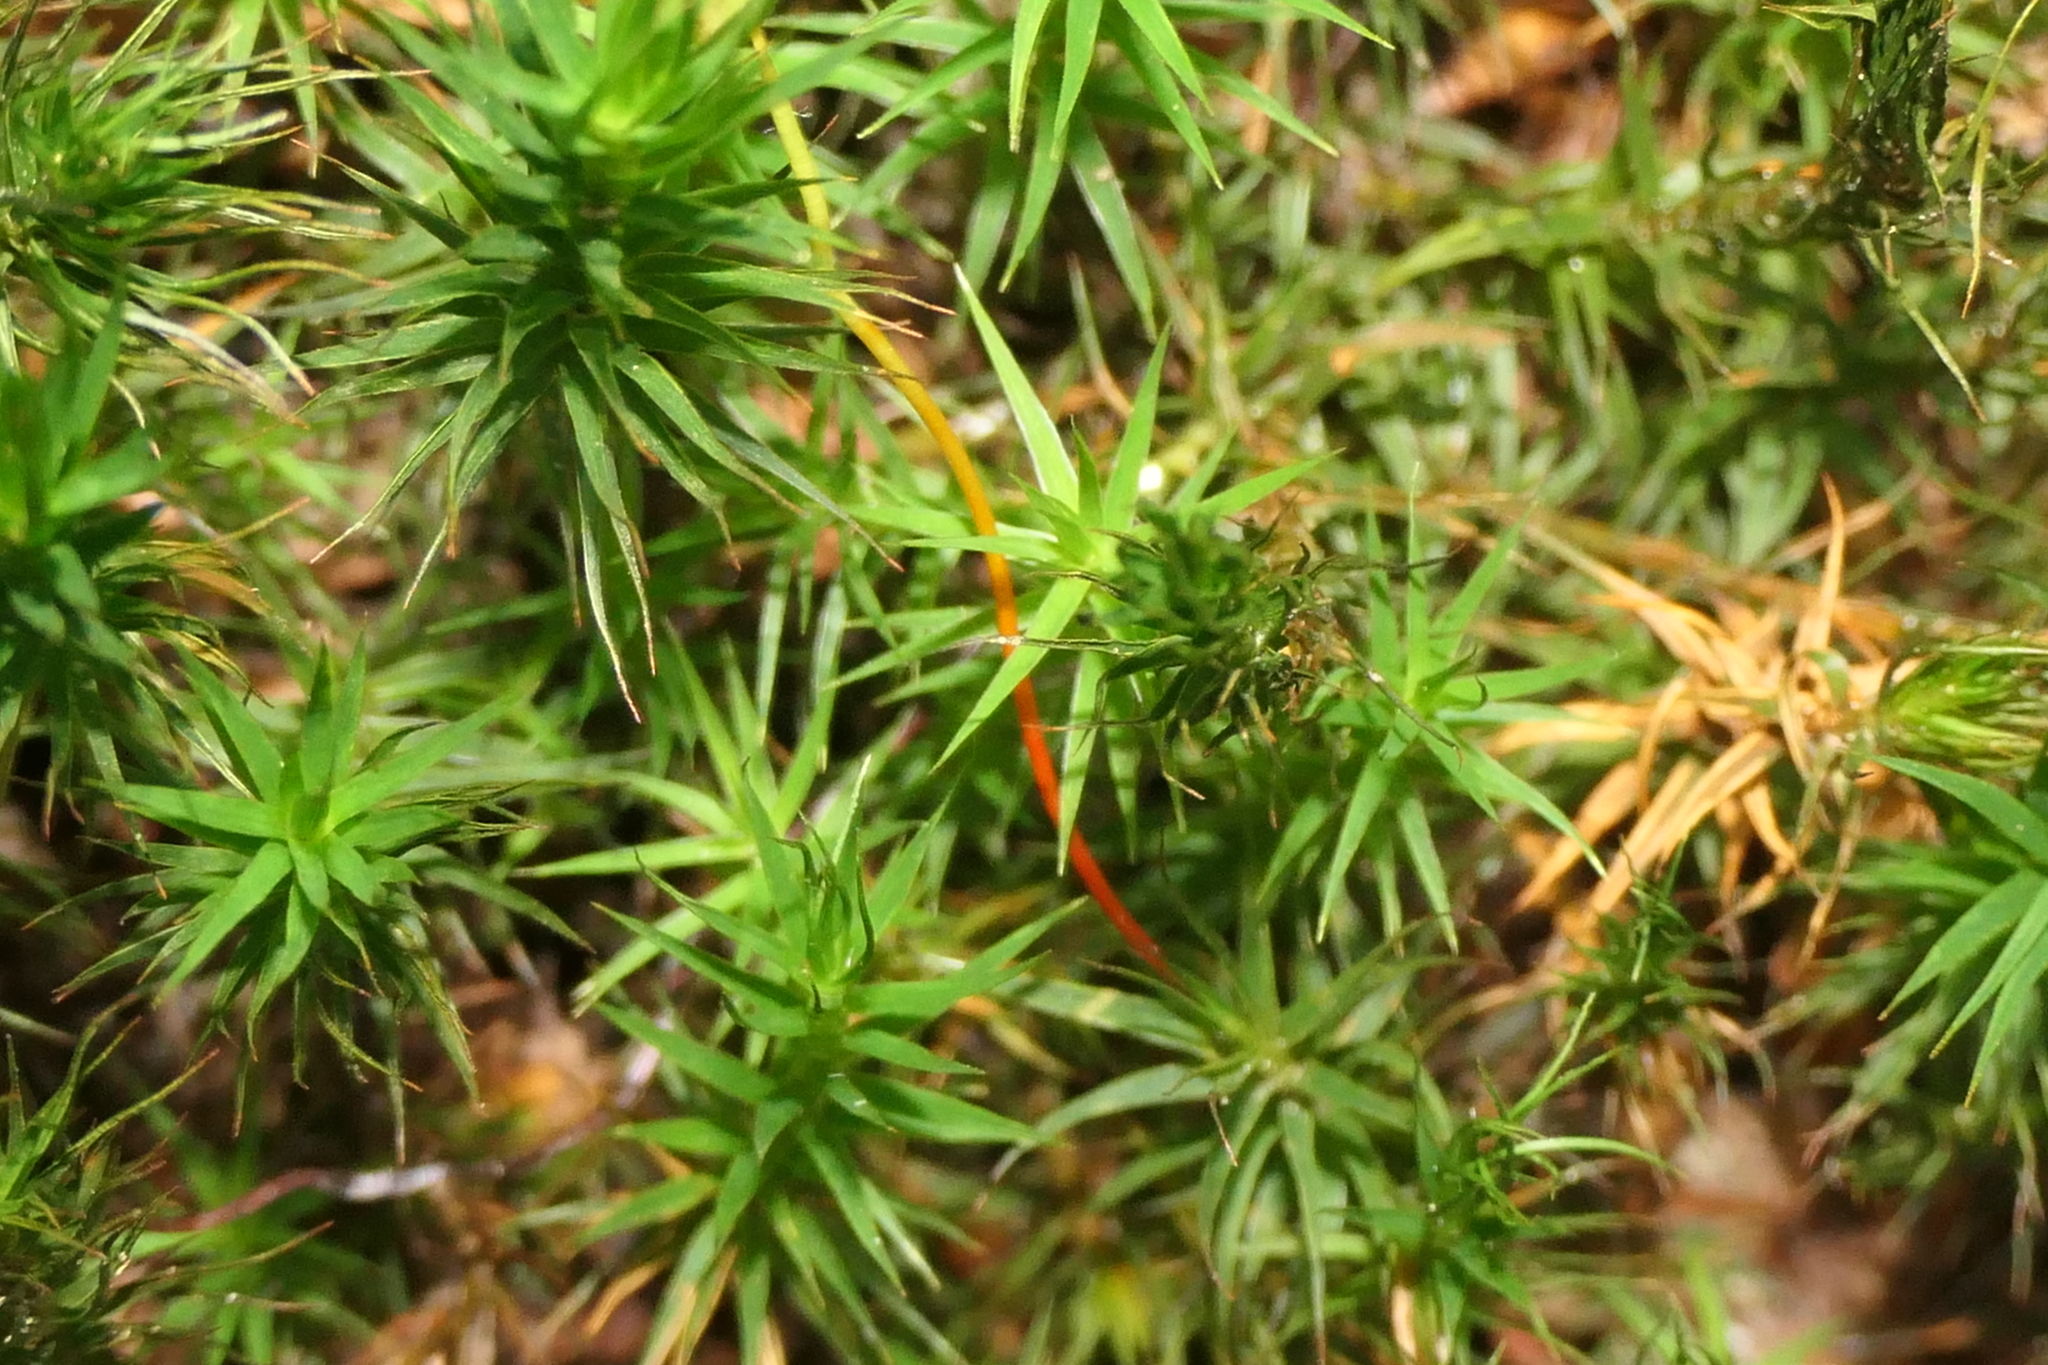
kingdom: Plantae
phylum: Bryophyta
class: Polytrichopsida
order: Polytrichales
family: Polytrichaceae
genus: Polytrichum
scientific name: Polytrichum formosum
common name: Bank haircap moss
